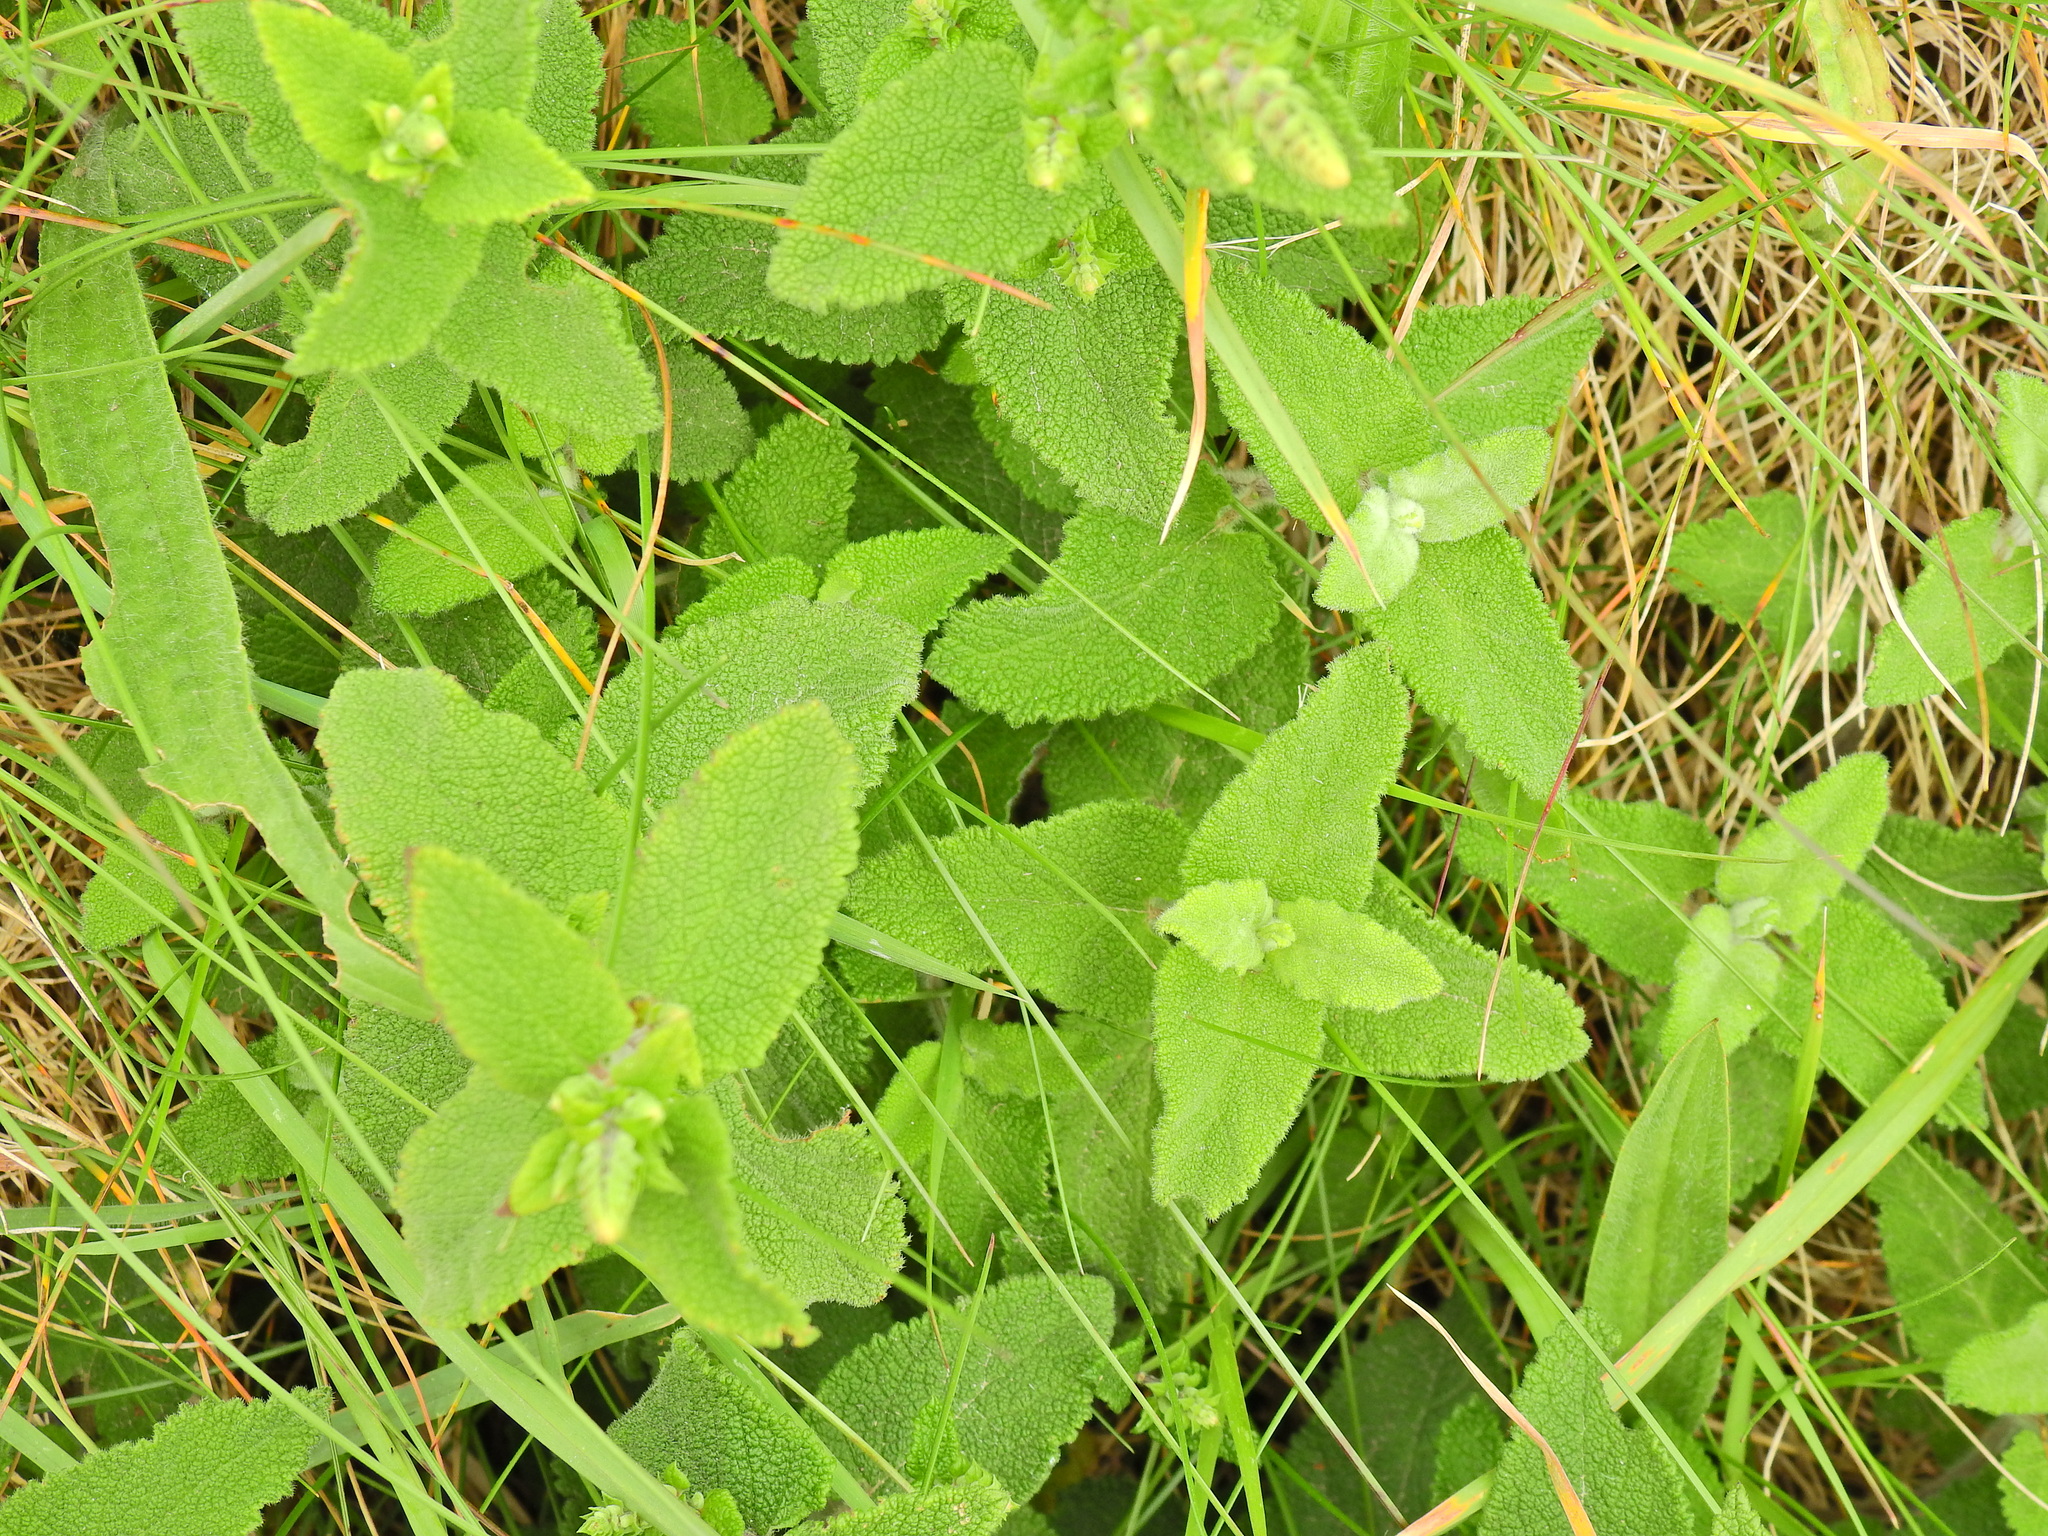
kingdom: Plantae
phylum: Tracheophyta
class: Magnoliopsida
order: Lamiales
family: Lamiaceae
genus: Teucrium
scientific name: Teucrium scorodonia
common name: Woodland germander
